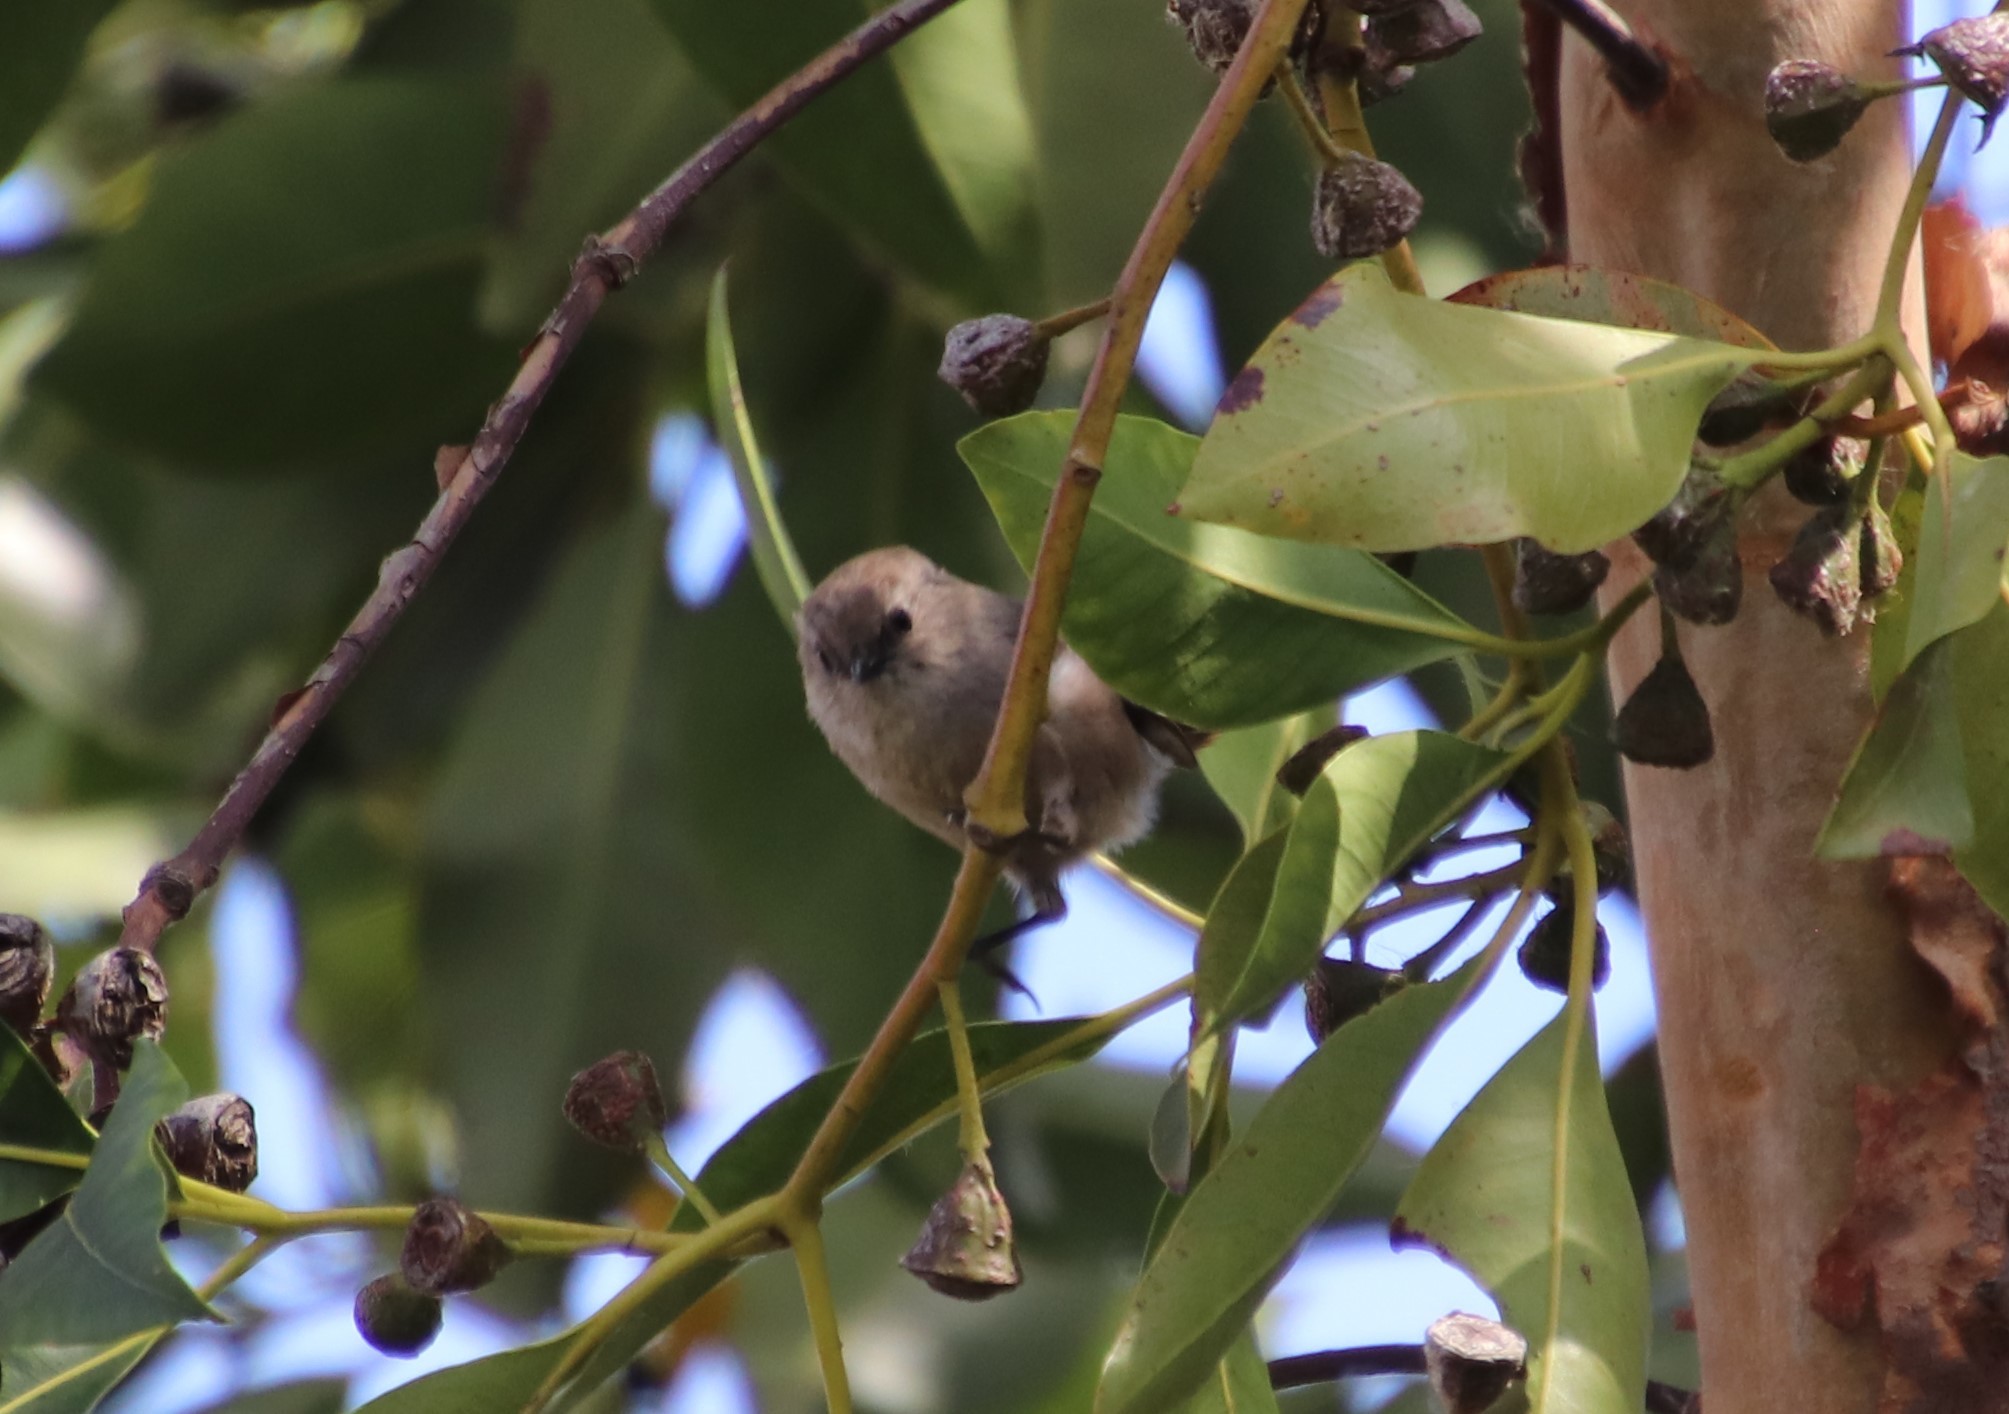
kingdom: Animalia
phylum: Chordata
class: Aves
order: Passeriformes
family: Aegithalidae
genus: Psaltriparus
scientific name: Psaltriparus minimus
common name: American bushtit
